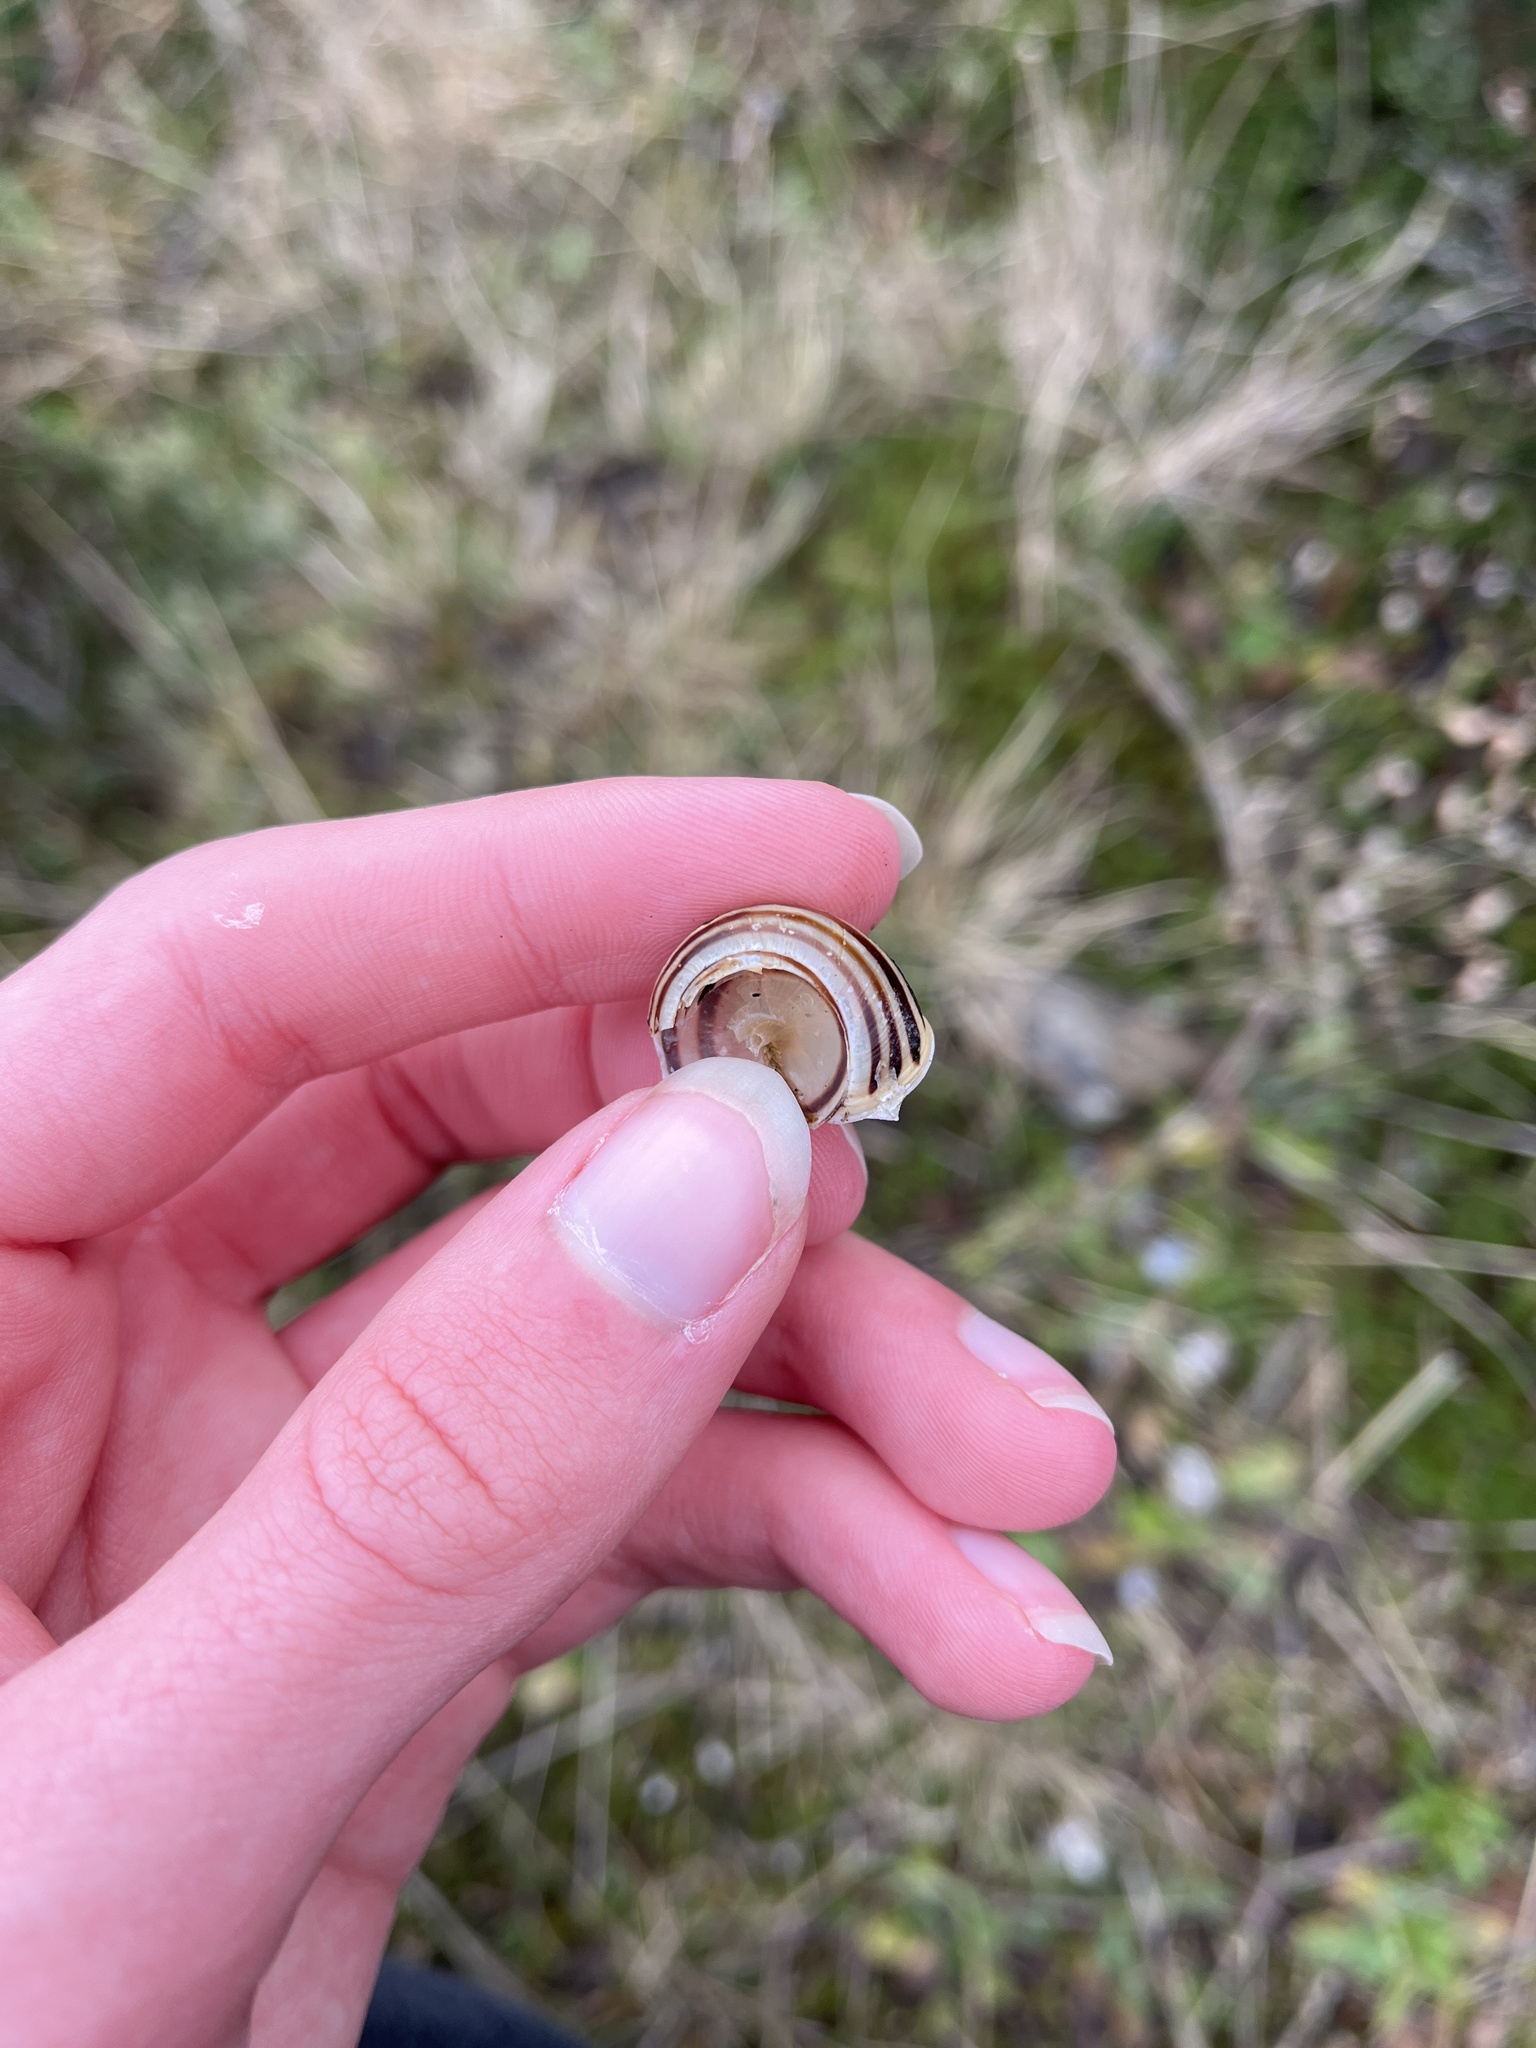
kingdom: Animalia
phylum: Mollusca
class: Gastropoda
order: Stylommatophora
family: Helicidae
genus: Cepaea
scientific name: Cepaea hortensis
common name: White-lip gardensnail
